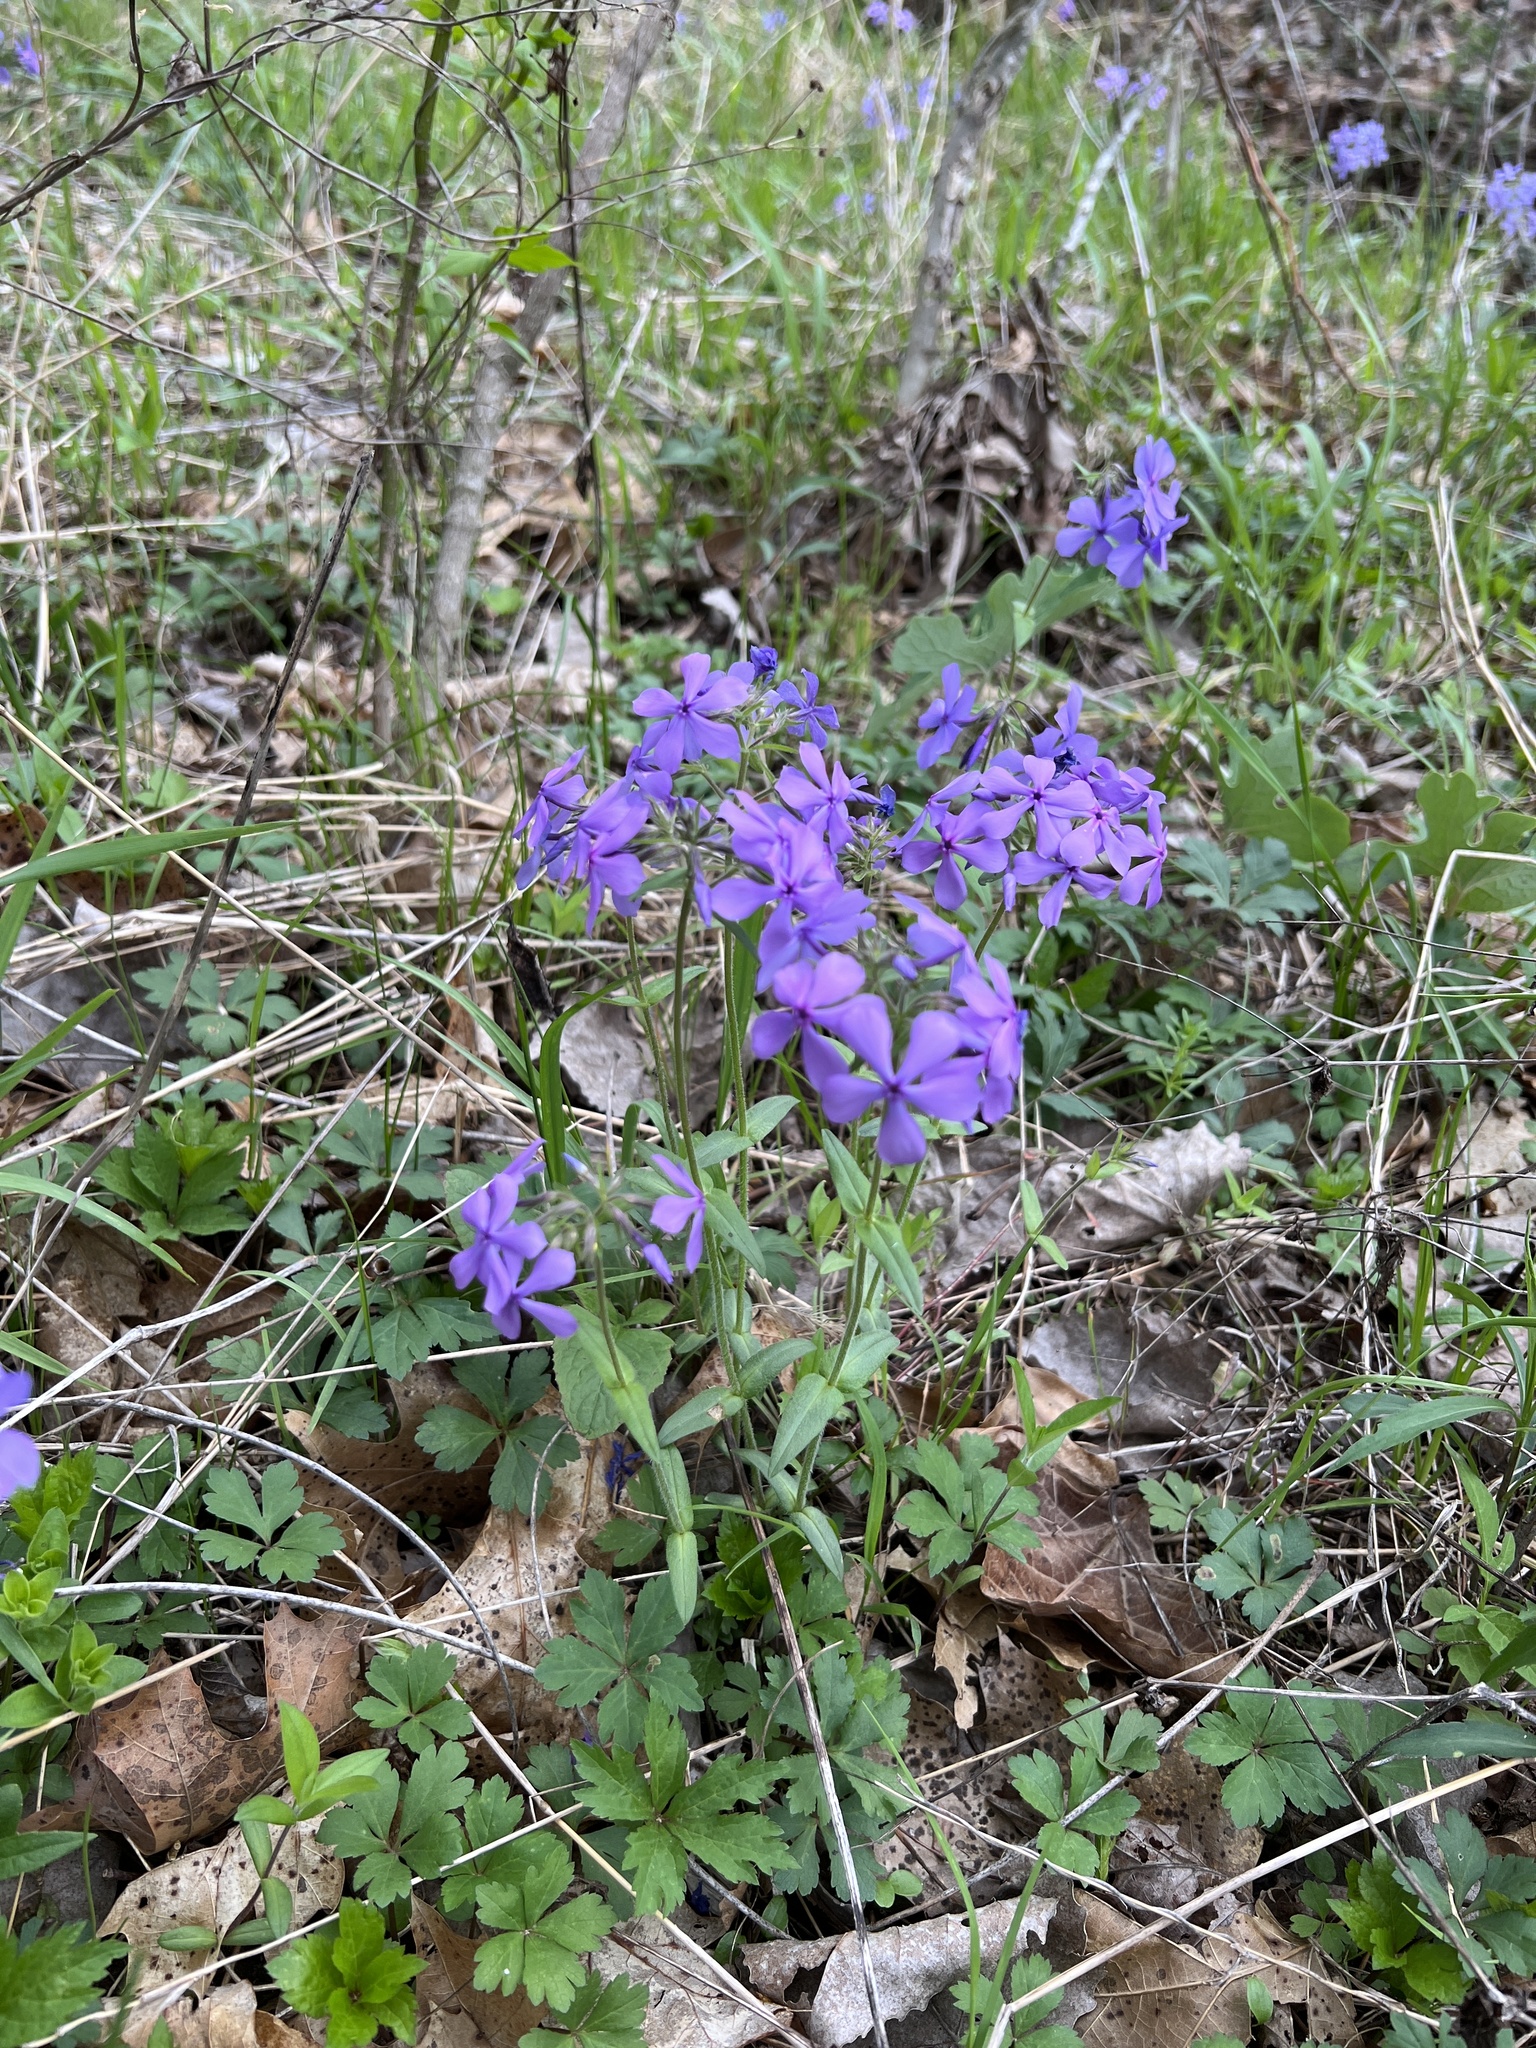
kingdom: Plantae
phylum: Tracheophyta
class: Magnoliopsida
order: Ericales
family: Polemoniaceae
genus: Phlox
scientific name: Phlox divaricata
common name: Blue phlox
